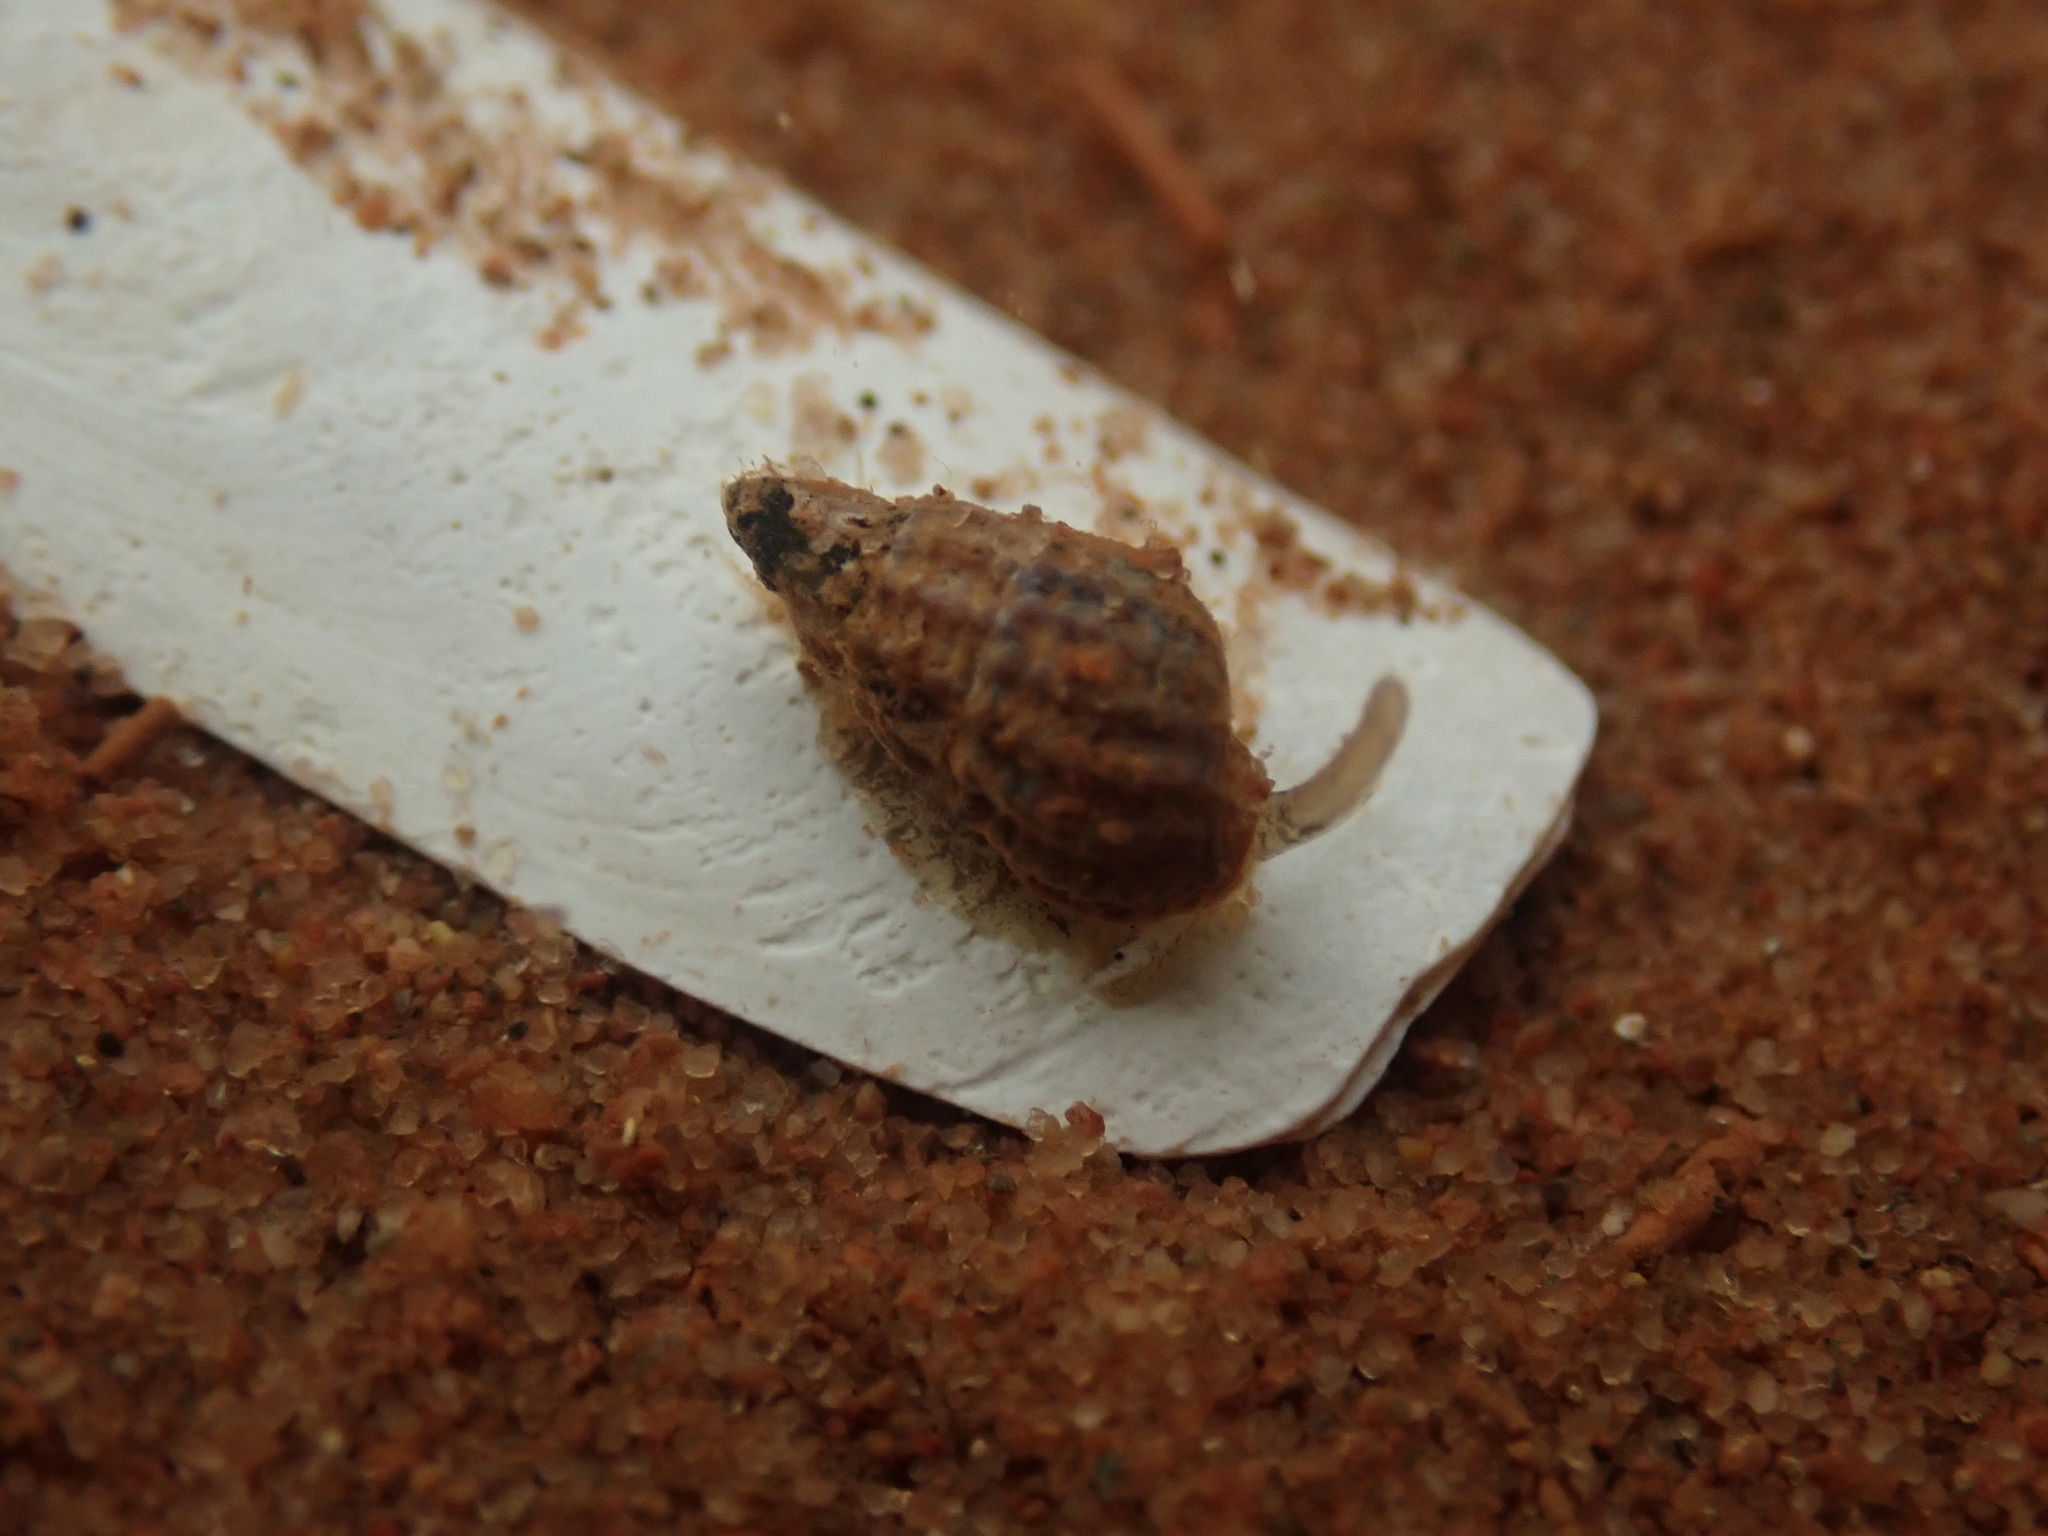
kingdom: Animalia
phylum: Mollusca
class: Gastropoda
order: Neogastropoda
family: Nassariidae
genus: Ilyanassa
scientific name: Ilyanassa trivittata
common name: Three-line mudsnail
